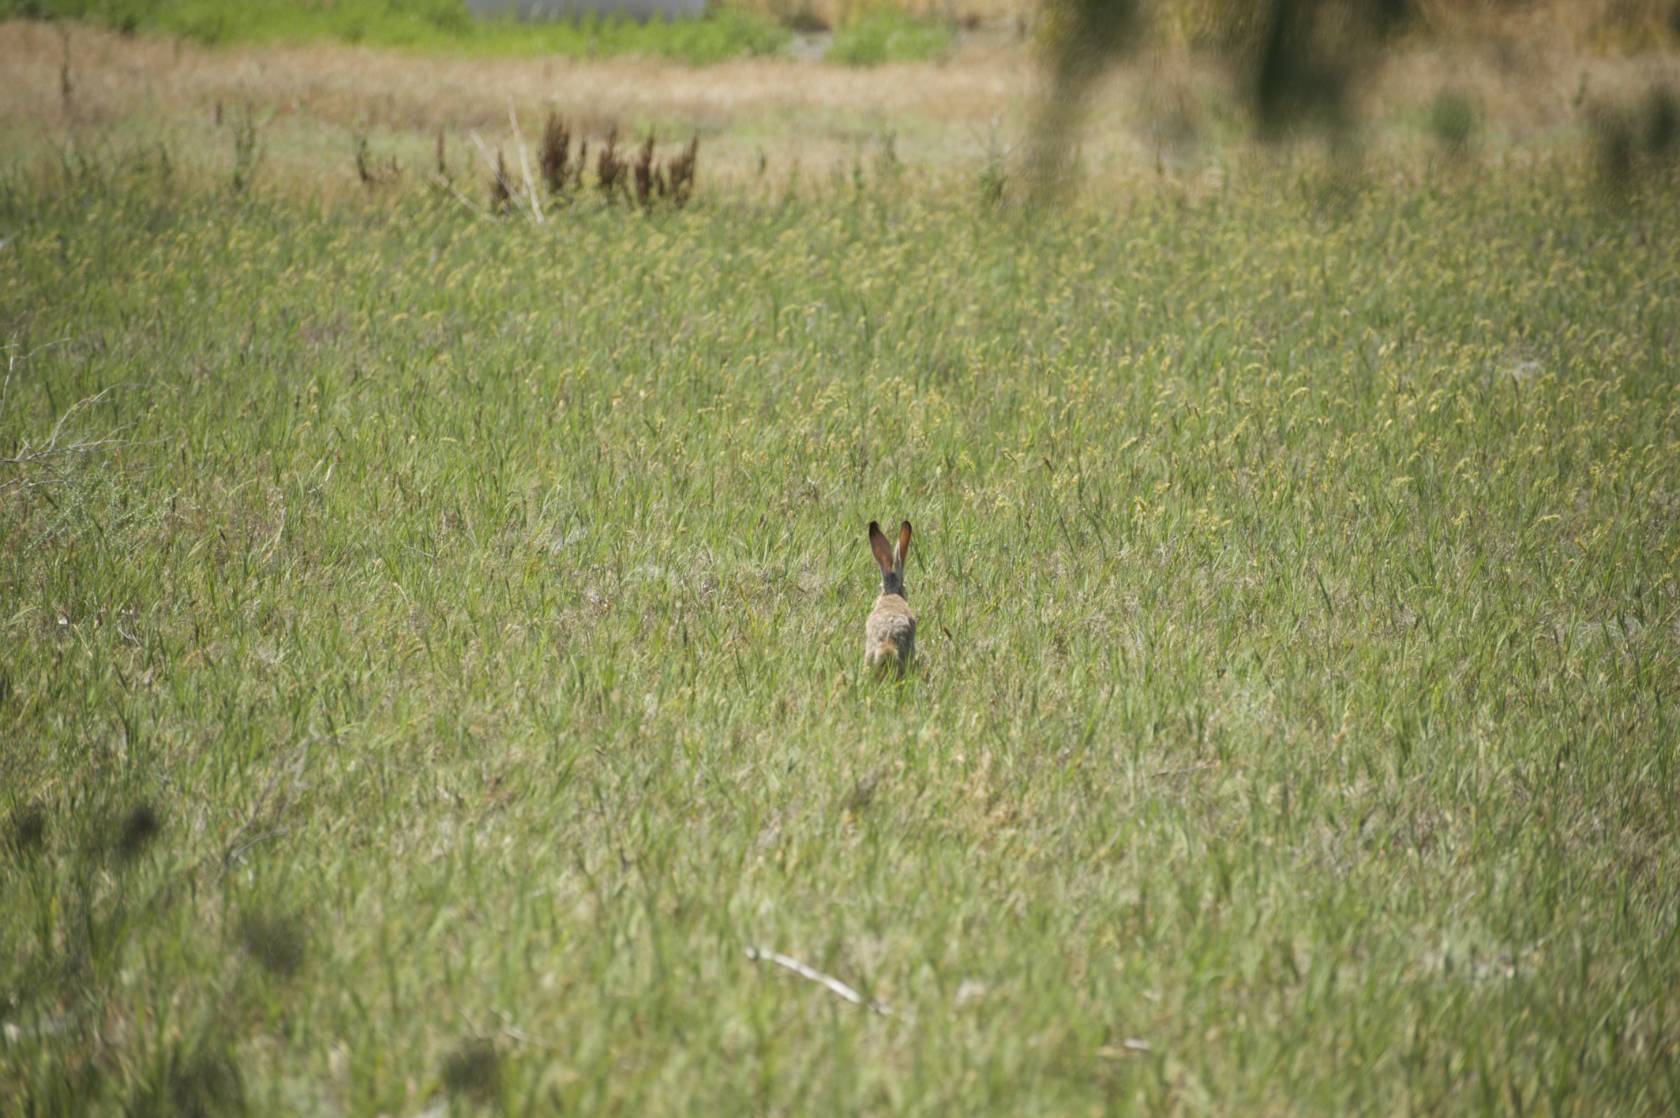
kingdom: Animalia
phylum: Chordata
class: Mammalia
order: Lagomorpha
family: Leporidae
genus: Lepus
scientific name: Lepus californicus
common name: Black-tailed jackrabbit
